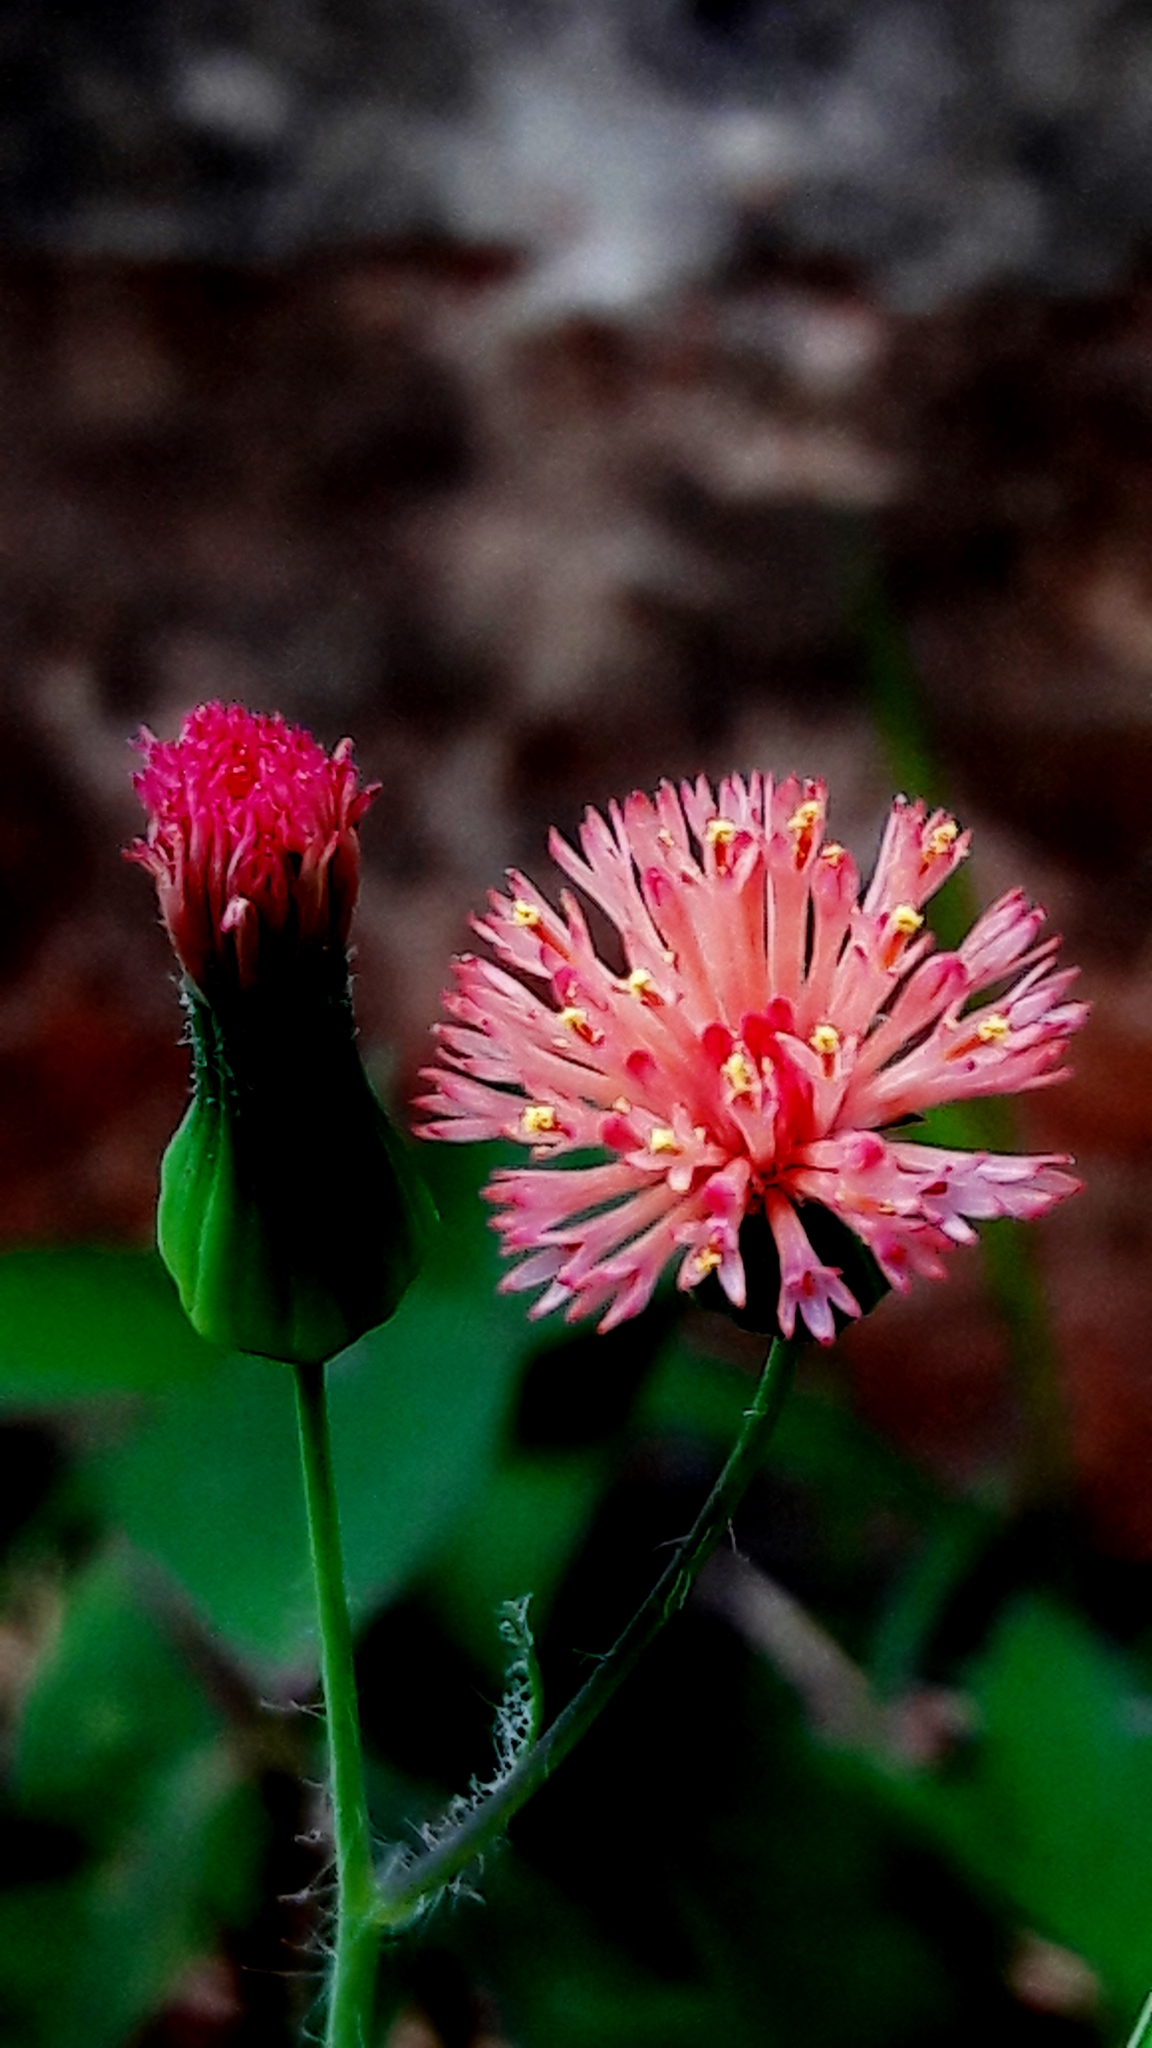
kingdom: Plantae
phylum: Tracheophyta
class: Magnoliopsida
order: Asterales
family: Asteraceae
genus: Emilia
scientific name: Emilia fosbergii
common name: Florida tasselflower
